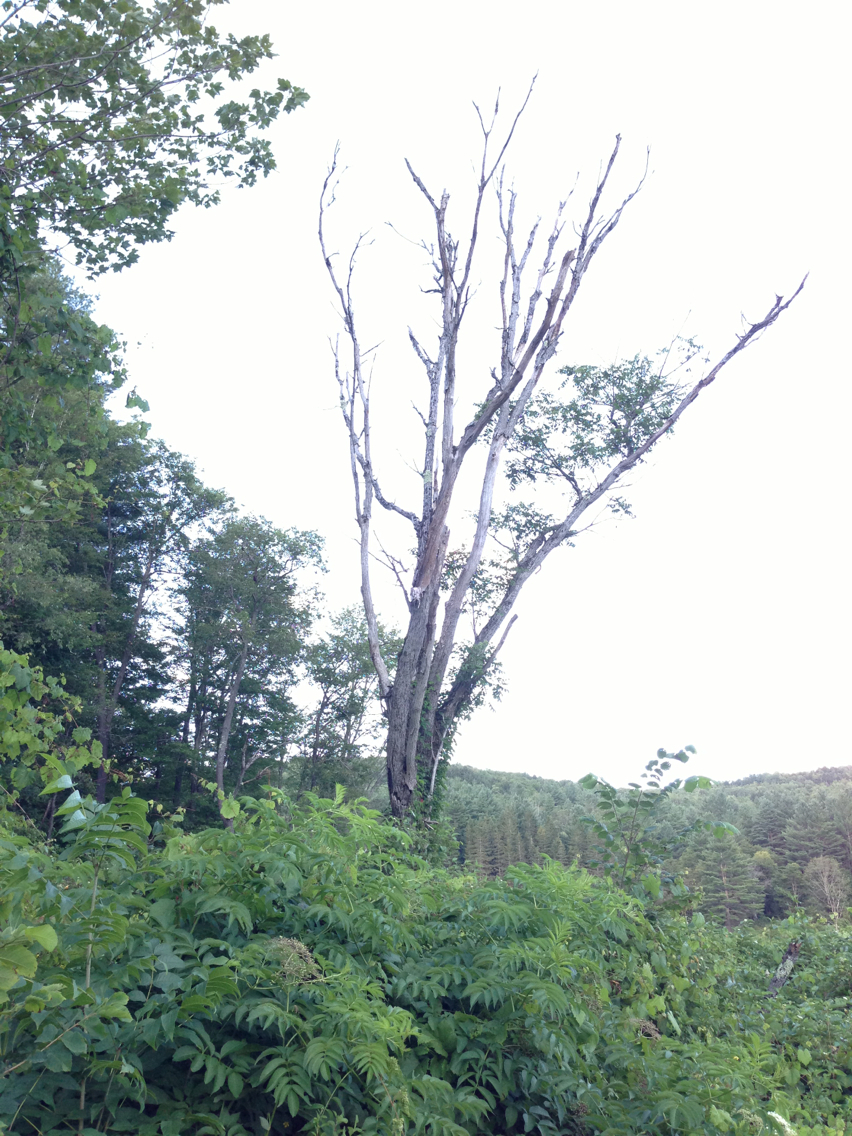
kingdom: Plantae
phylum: Tracheophyta
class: Magnoliopsida
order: Fagales
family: Juglandaceae
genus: Juglans
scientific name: Juglans cinerea
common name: Butternut
